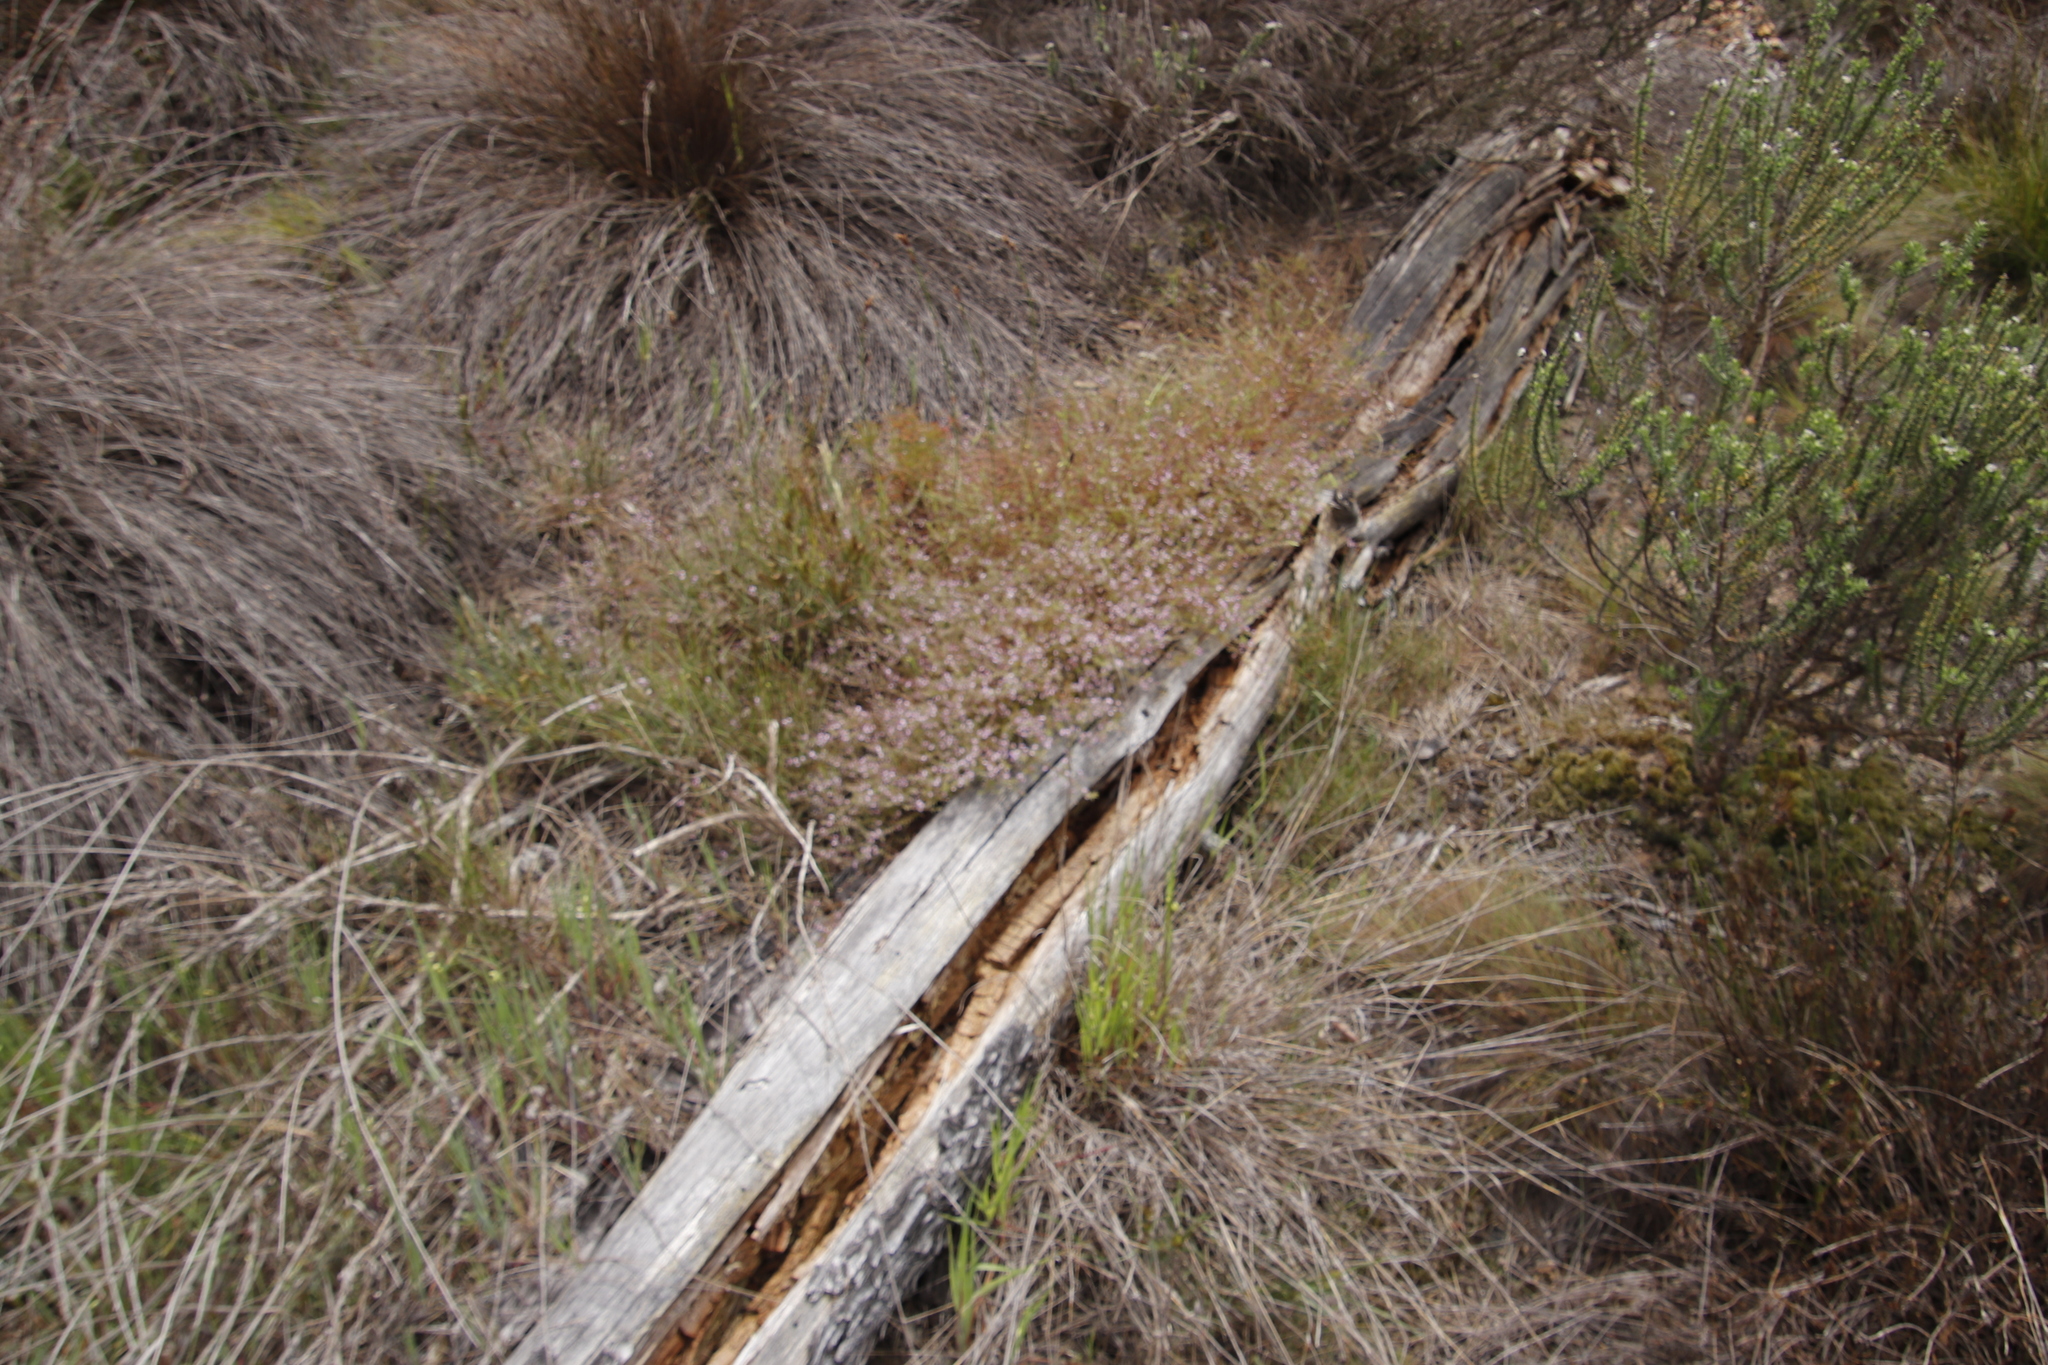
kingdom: Plantae
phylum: Tracheophyta
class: Magnoliopsida
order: Fabales
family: Polygalaceae
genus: Muraltia
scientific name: Muraltia stipulacea
